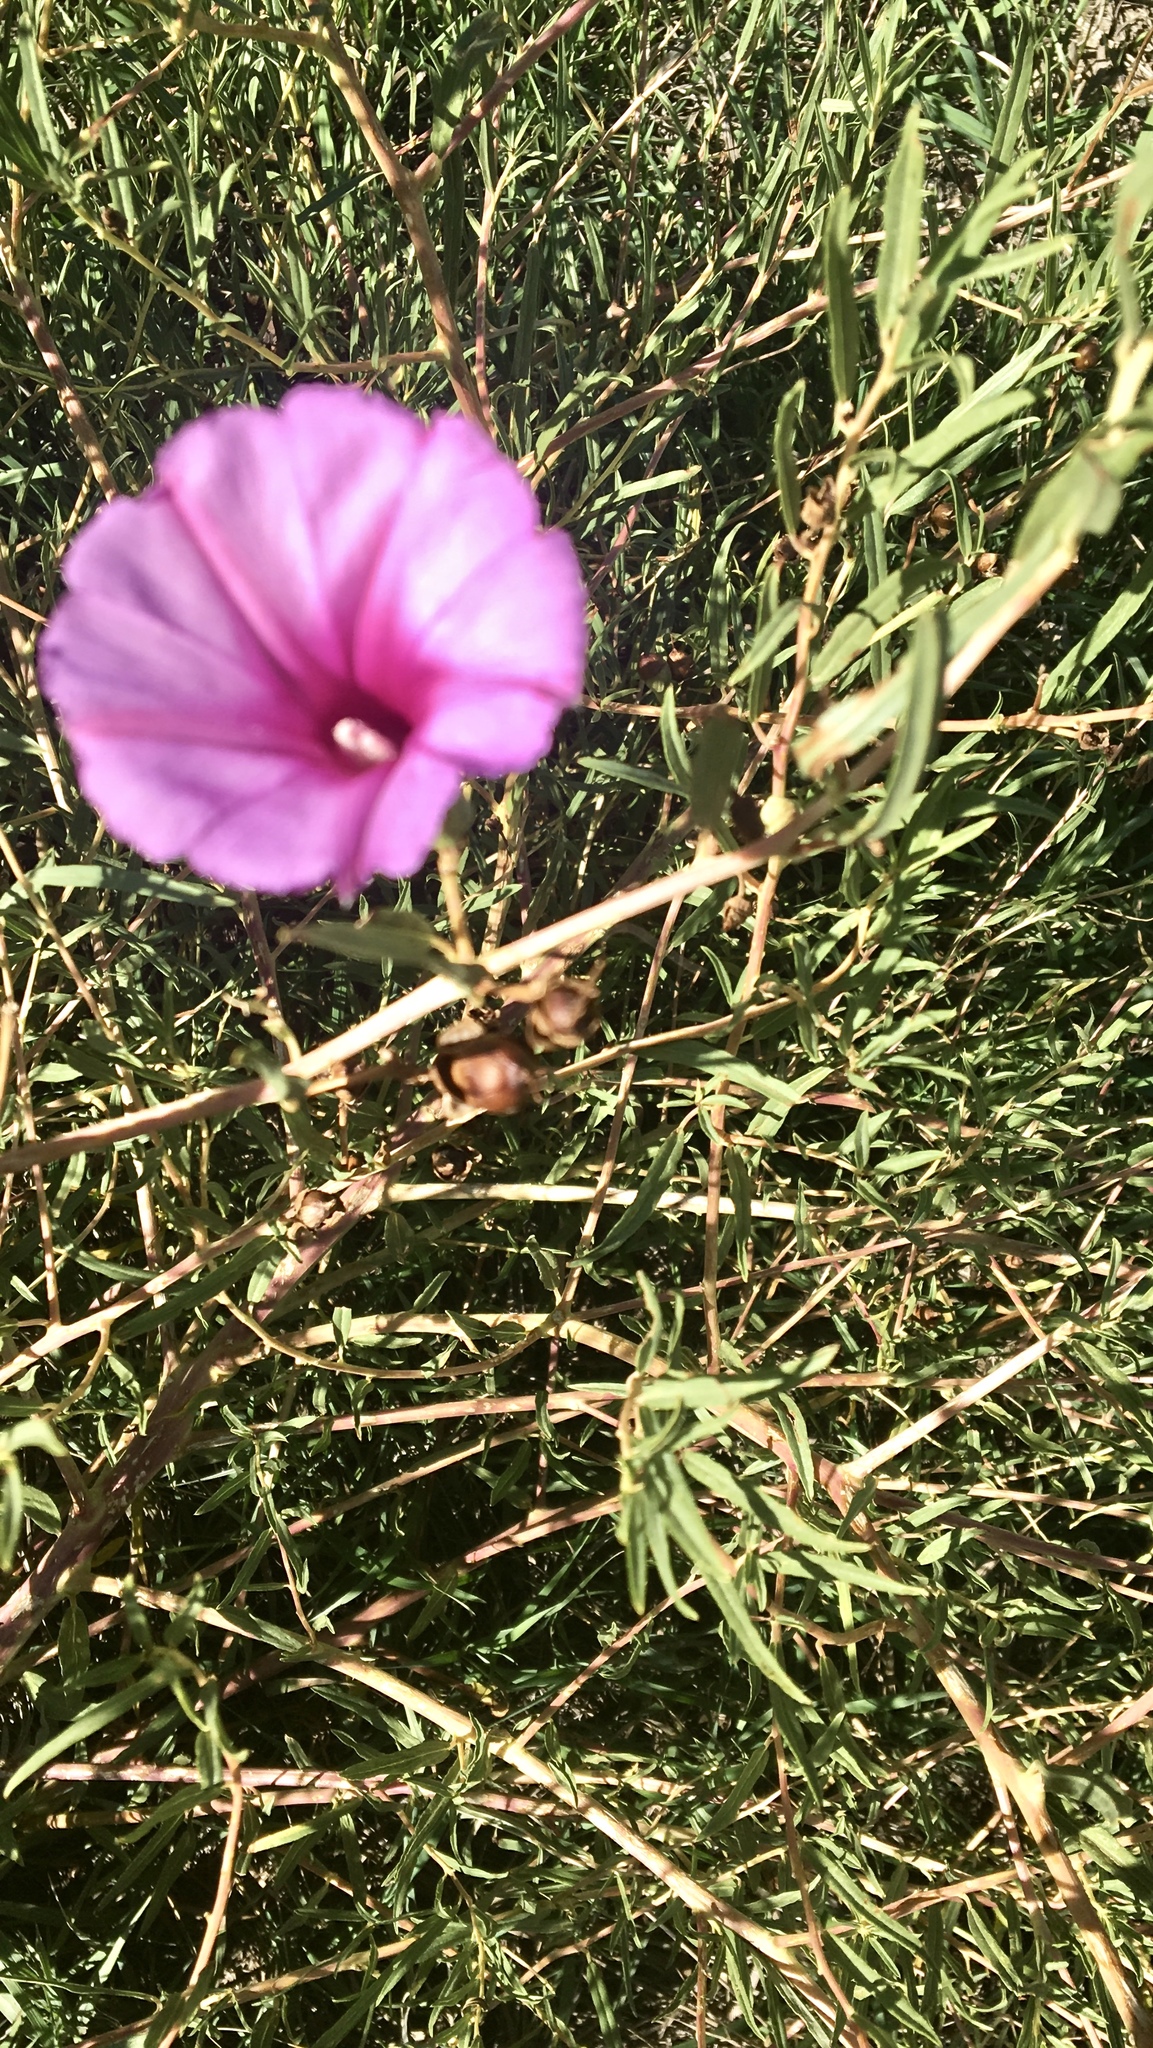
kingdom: Plantae
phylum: Tracheophyta
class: Magnoliopsida
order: Solanales
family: Convolvulaceae
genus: Ipomoea
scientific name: Ipomoea leptophylla
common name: Bush moonflower
